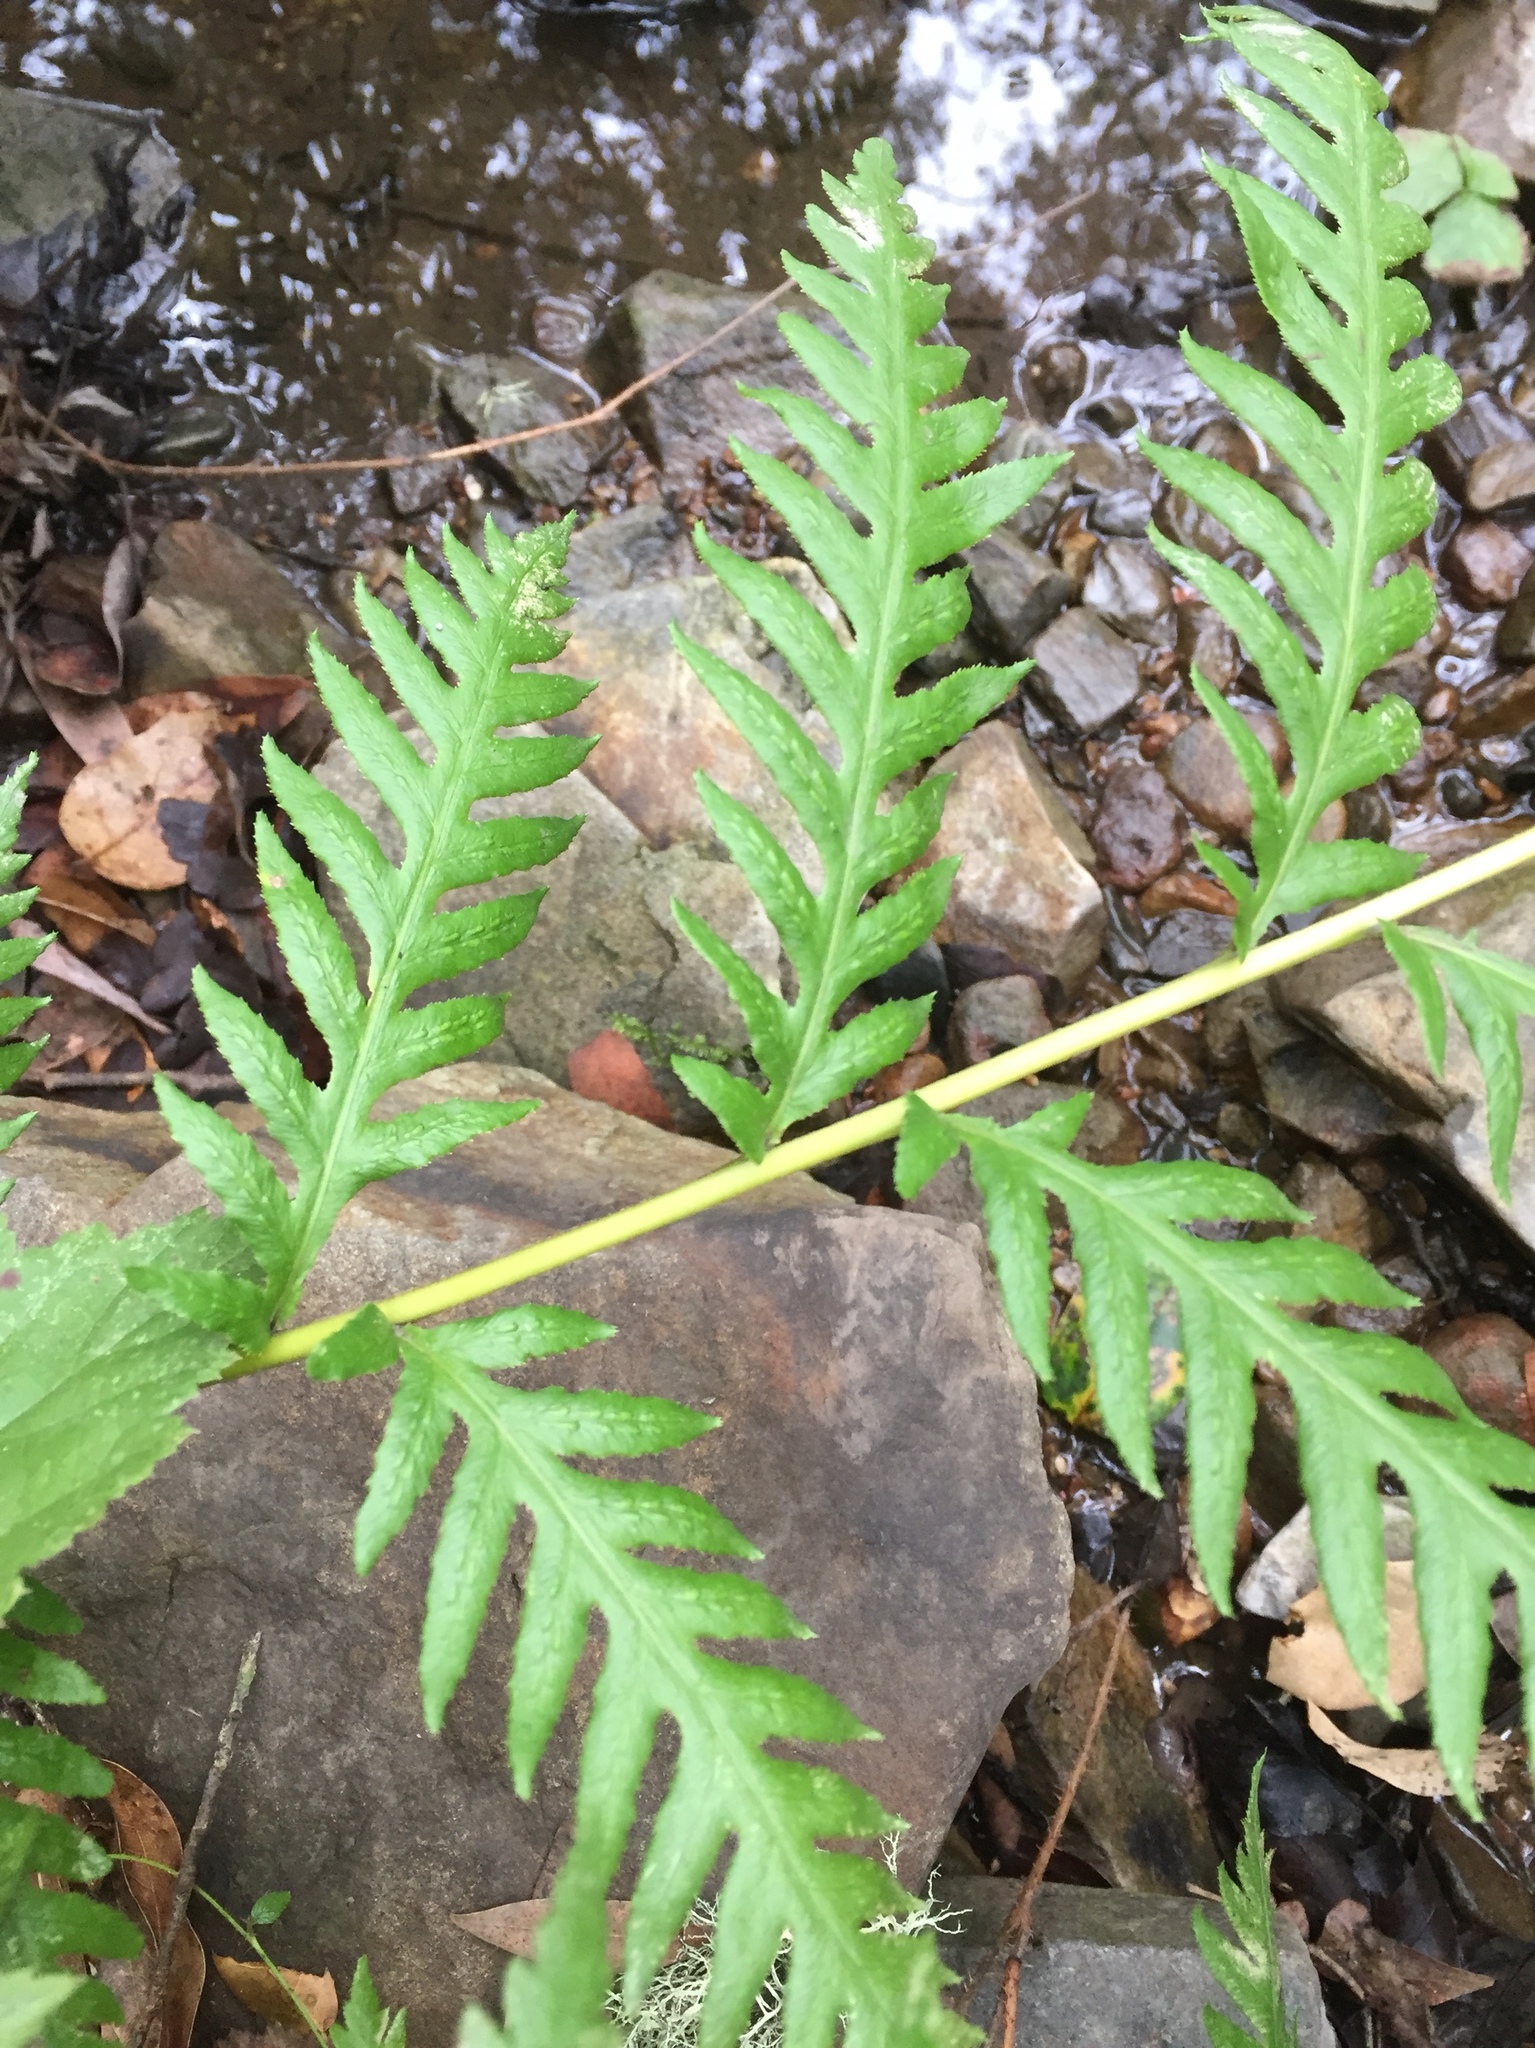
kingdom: Plantae
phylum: Tracheophyta
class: Polypodiopsida
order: Polypodiales
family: Blechnaceae
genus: Woodwardia
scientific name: Woodwardia fimbriata
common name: Giant chain fern
